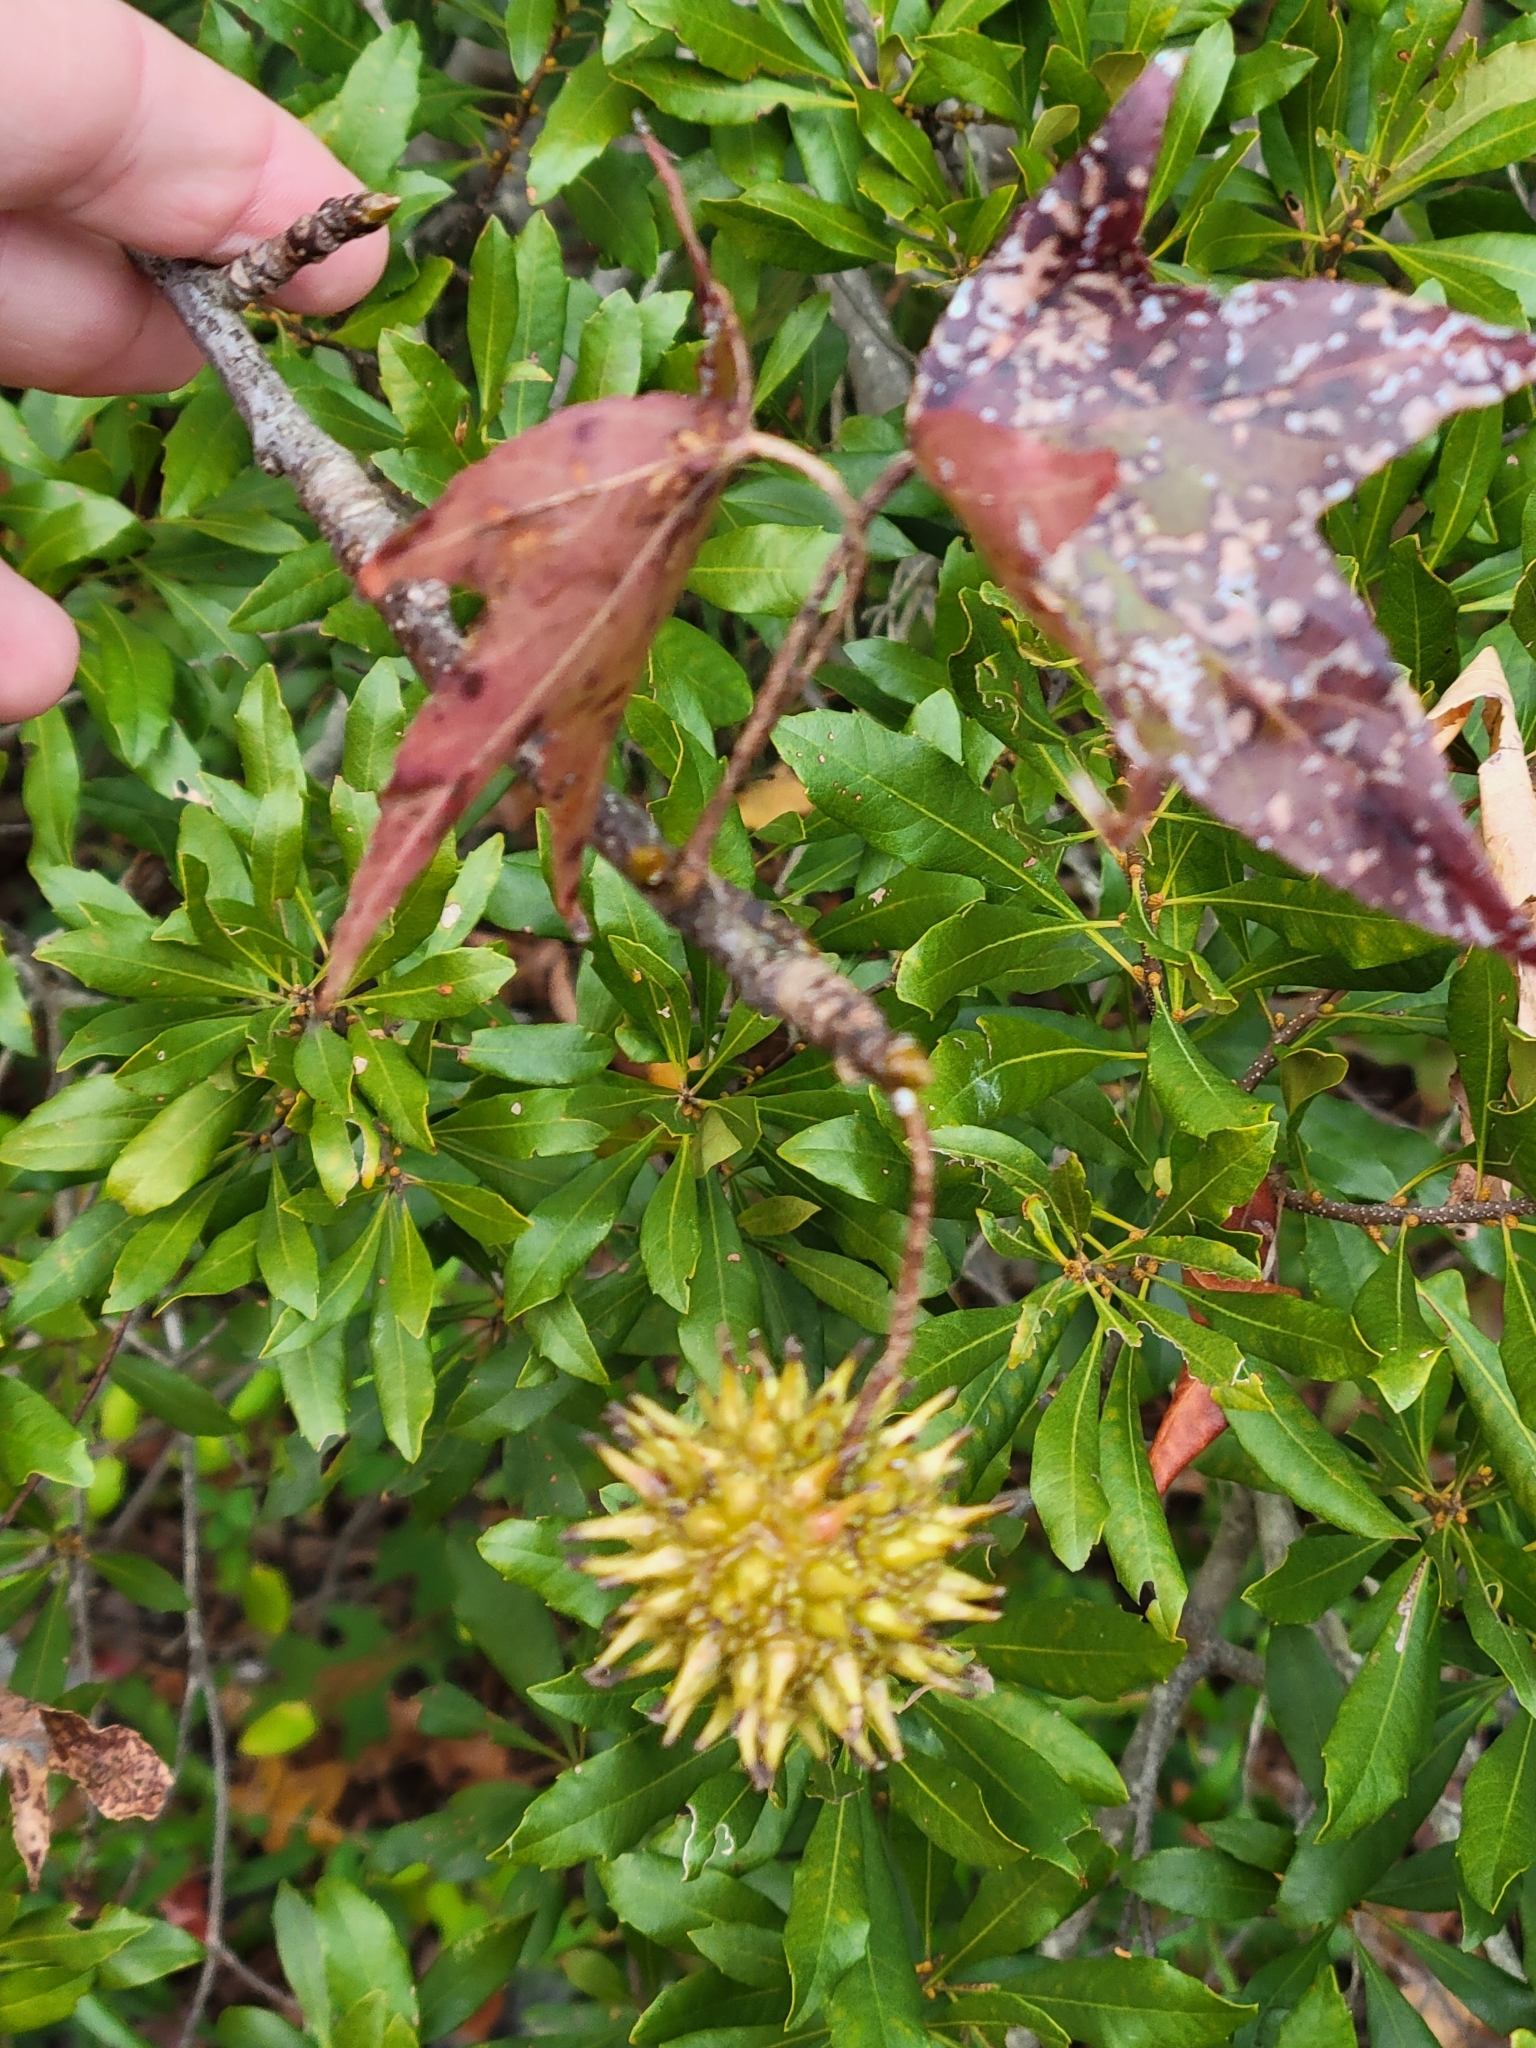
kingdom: Plantae
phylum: Tracheophyta
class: Magnoliopsida
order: Saxifragales
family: Altingiaceae
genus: Liquidambar
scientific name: Liquidambar styraciflua
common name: Sweet gum
